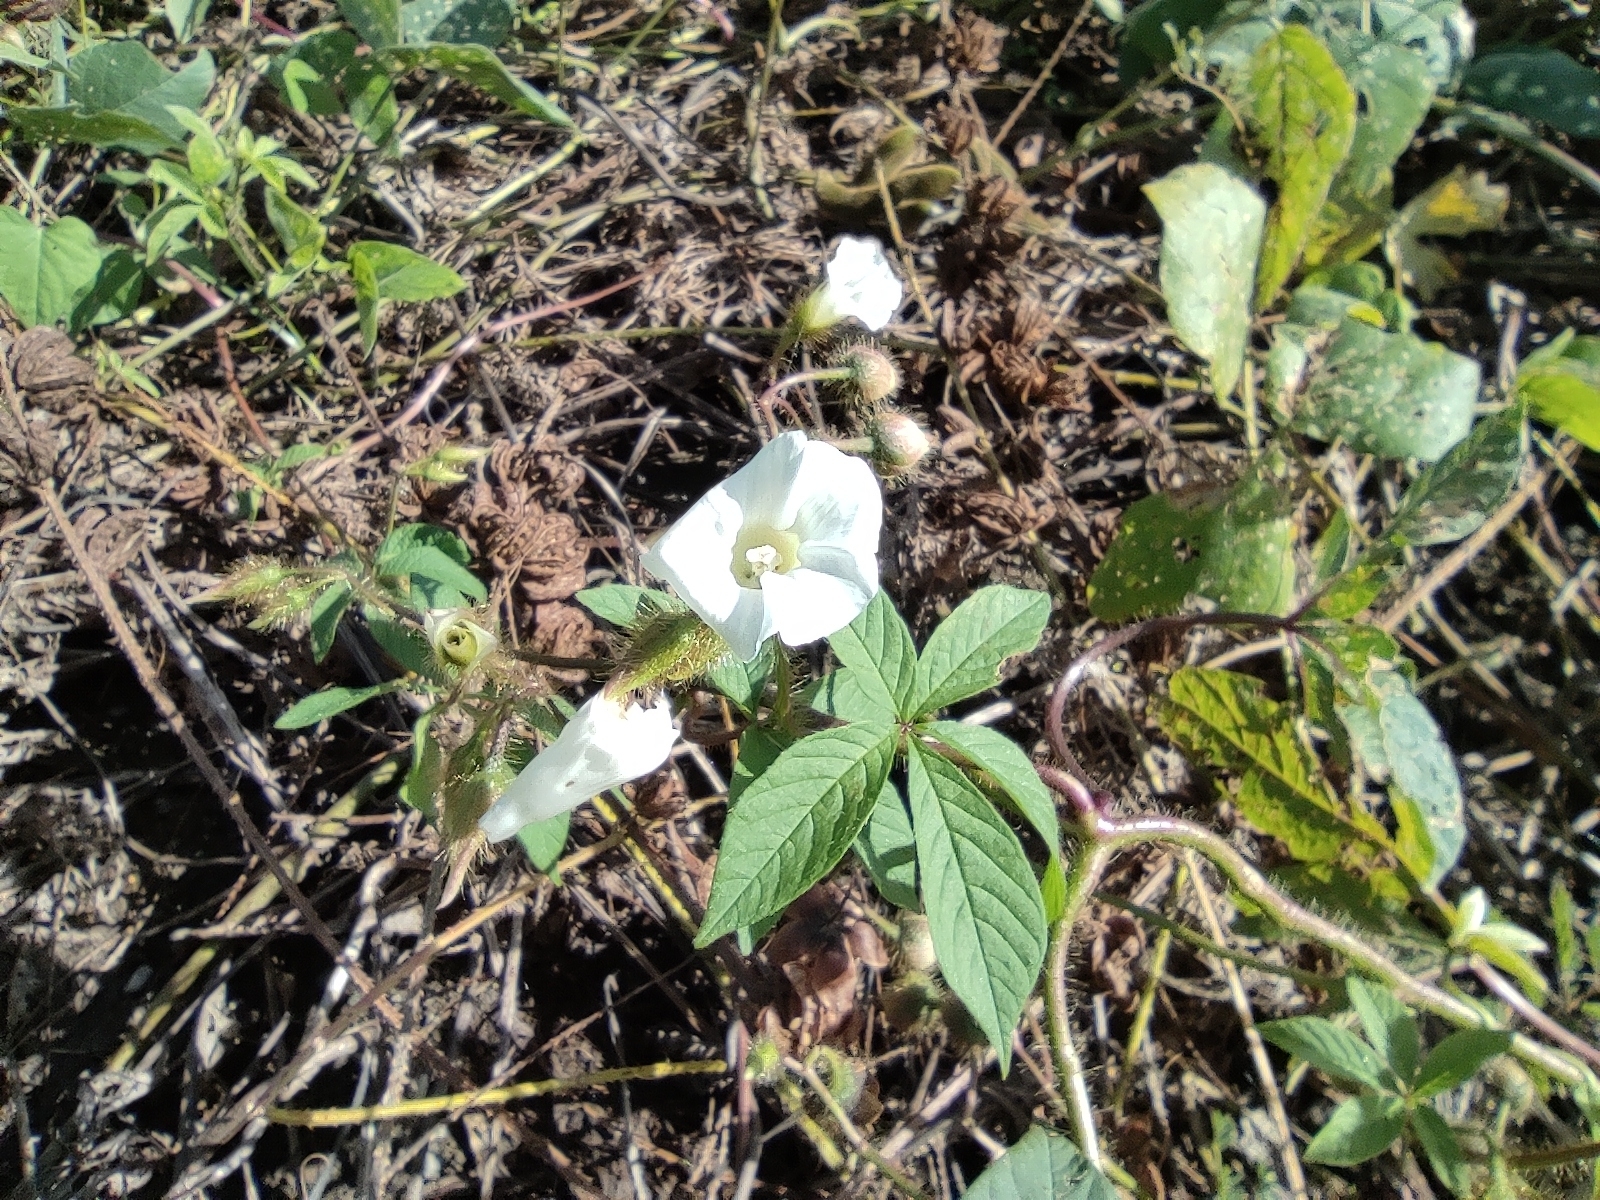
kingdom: Plantae
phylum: Tracheophyta
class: Magnoliopsida
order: Solanales
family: Convolvulaceae
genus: Distimake
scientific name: Distimake aegyptius
